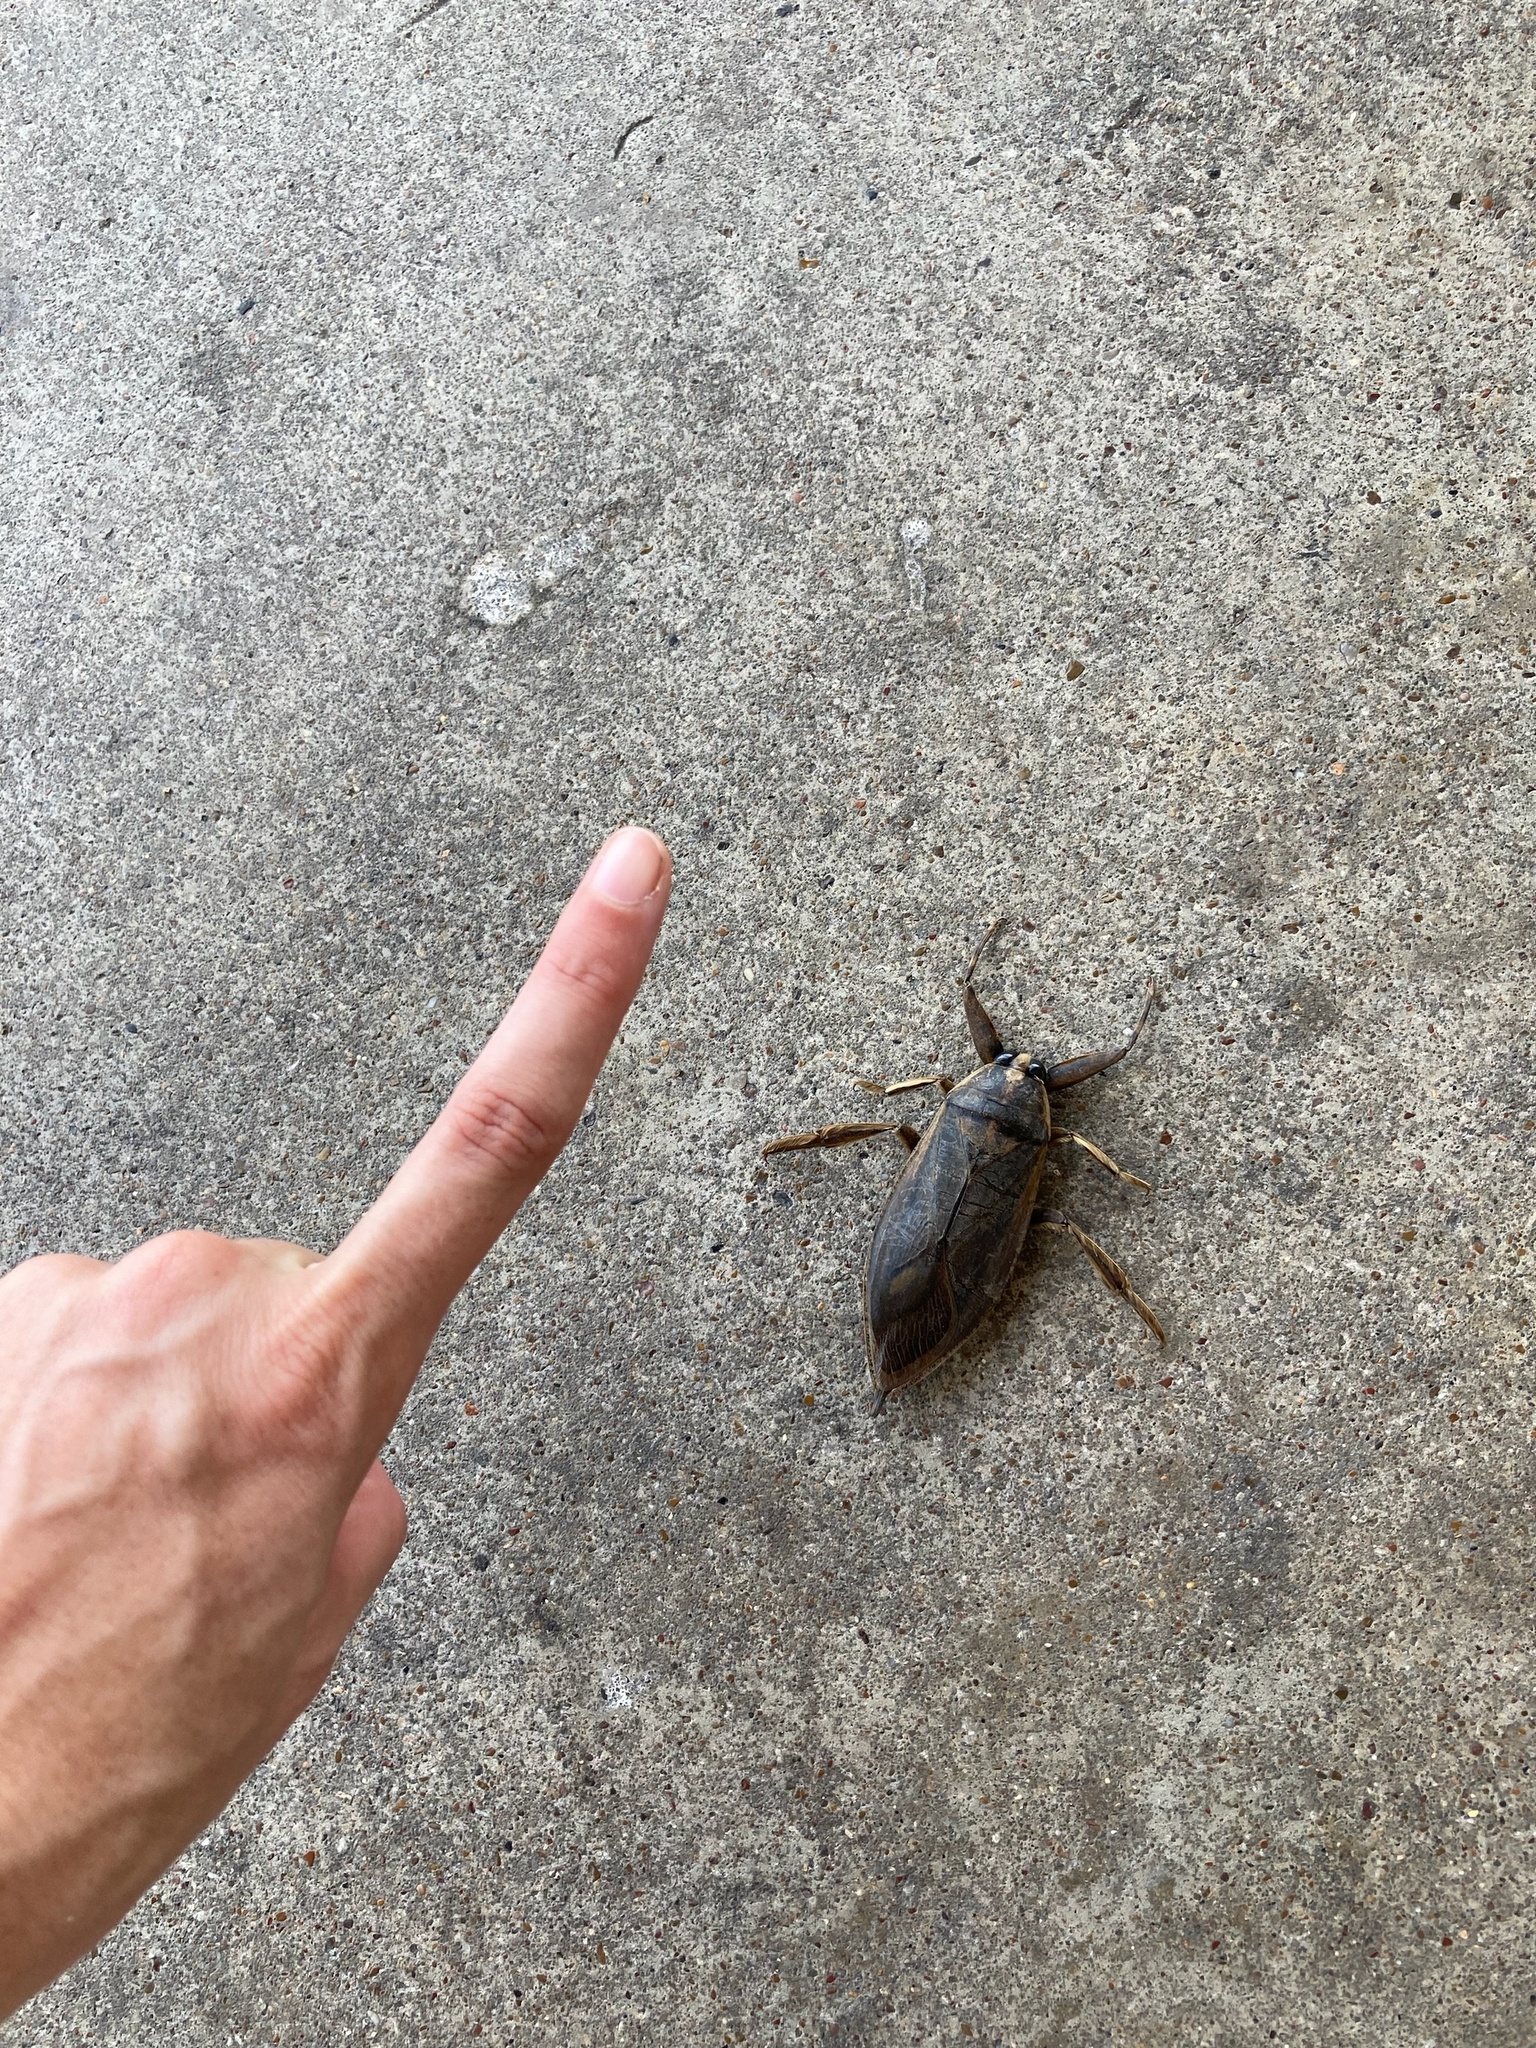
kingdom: Animalia
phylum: Arthropoda
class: Insecta
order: Hemiptera
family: Belostomatidae
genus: Benacus
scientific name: Benacus griseus
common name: Eastern toe-biter
